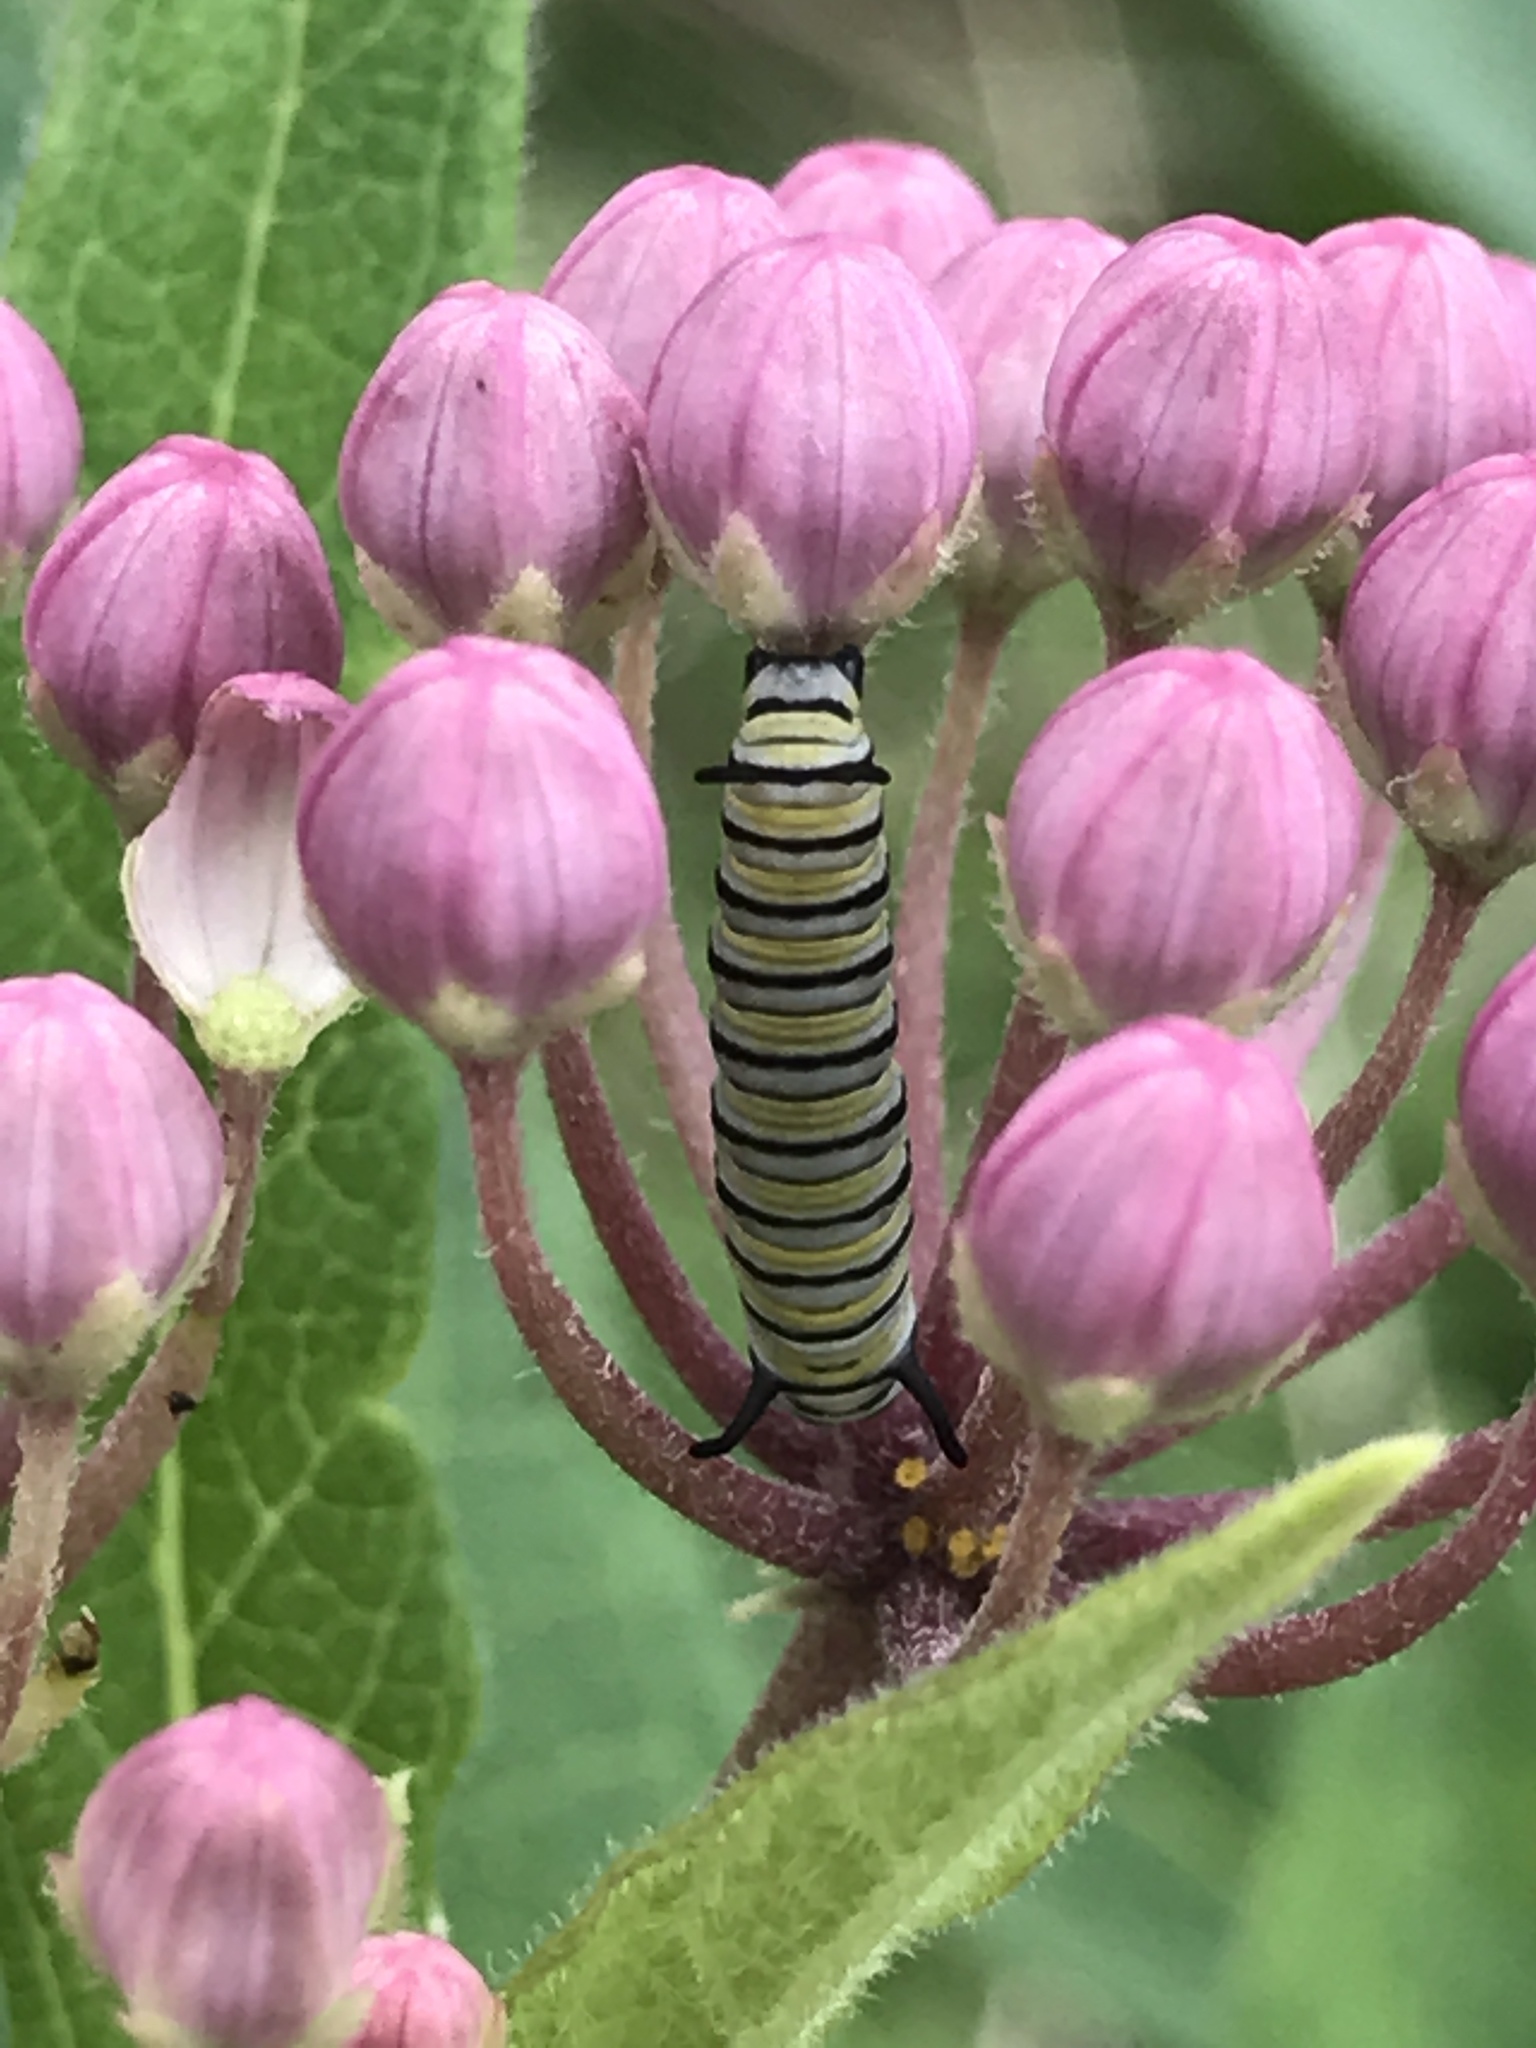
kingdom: Animalia
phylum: Arthropoda
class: Insecta
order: Lepidoptera
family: Nymphalidae
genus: Danaus
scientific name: Danaus plexippus
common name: Monarch
